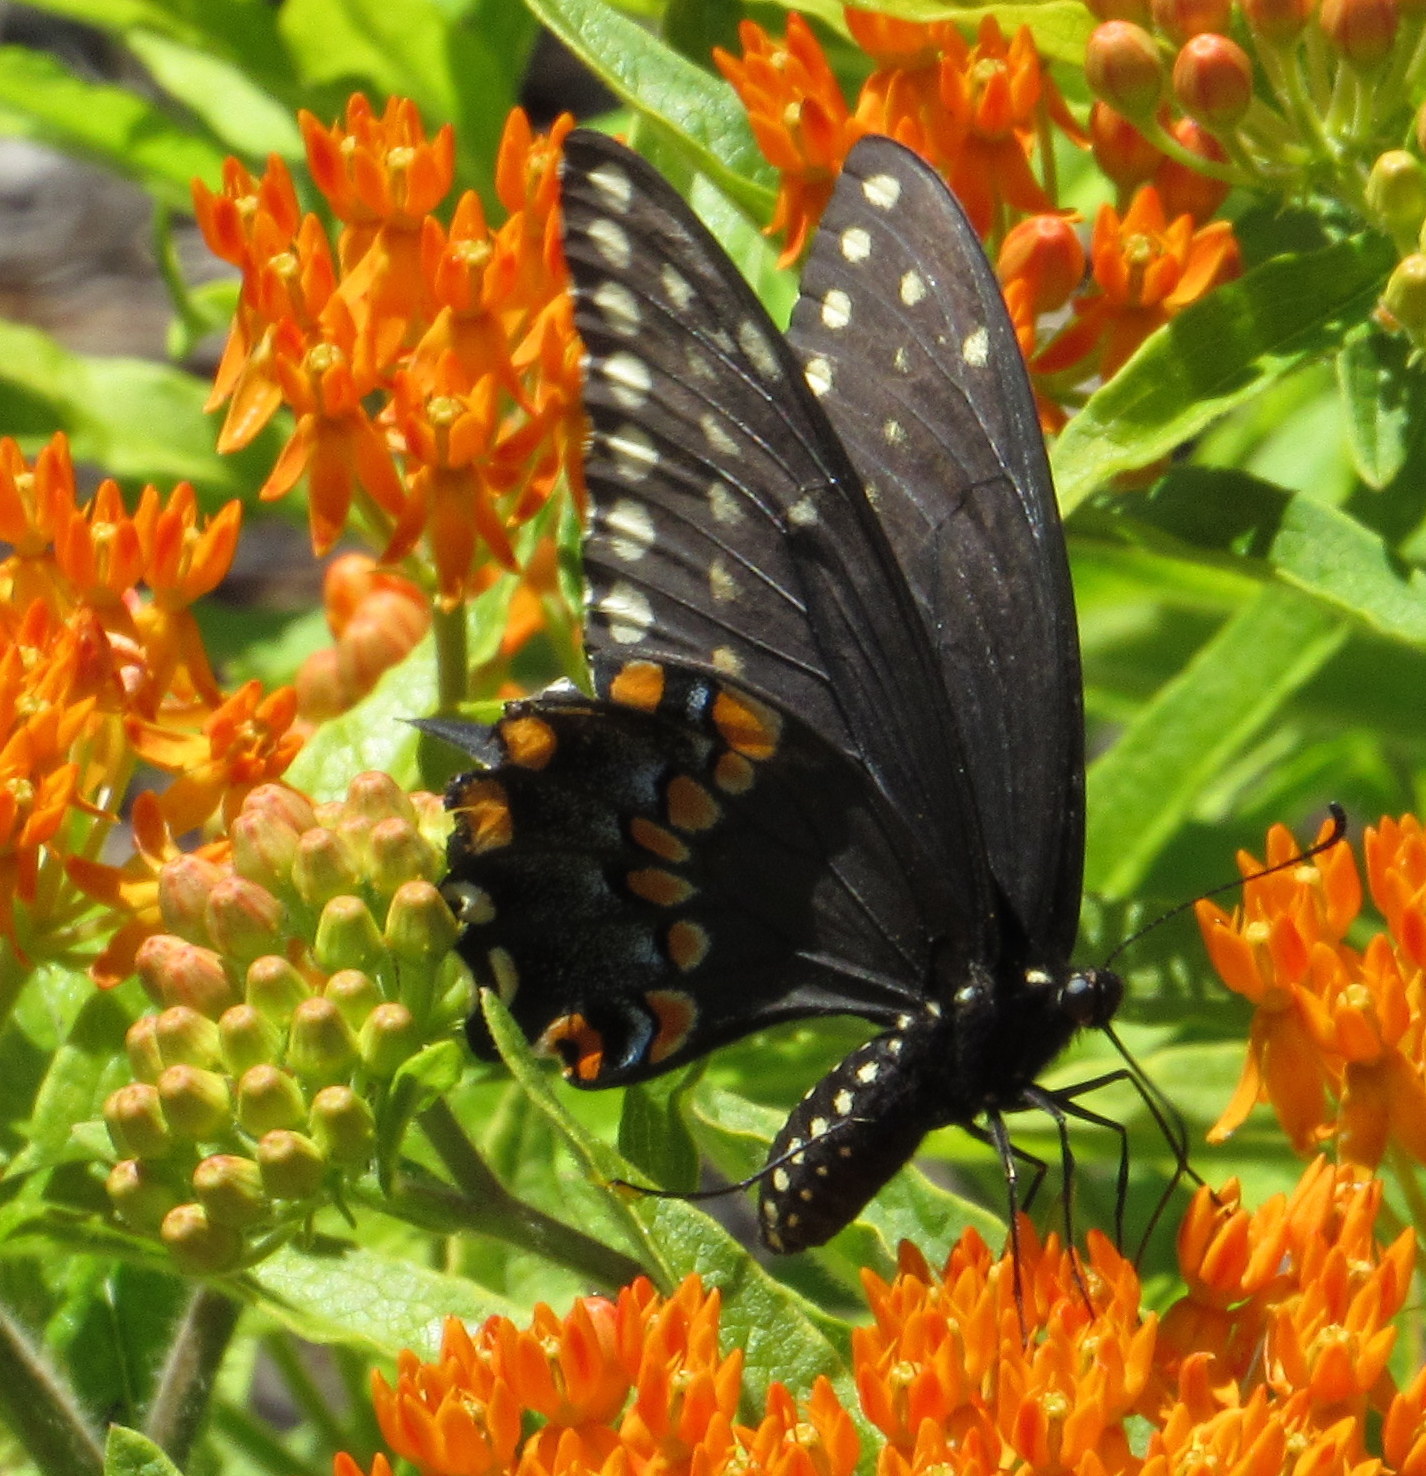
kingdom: Animalia
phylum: Arthropoda
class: Insecta
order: Lepidoptera
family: Papilionidae
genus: Papilio
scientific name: Papilio polyxenes
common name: Black swallowtail
